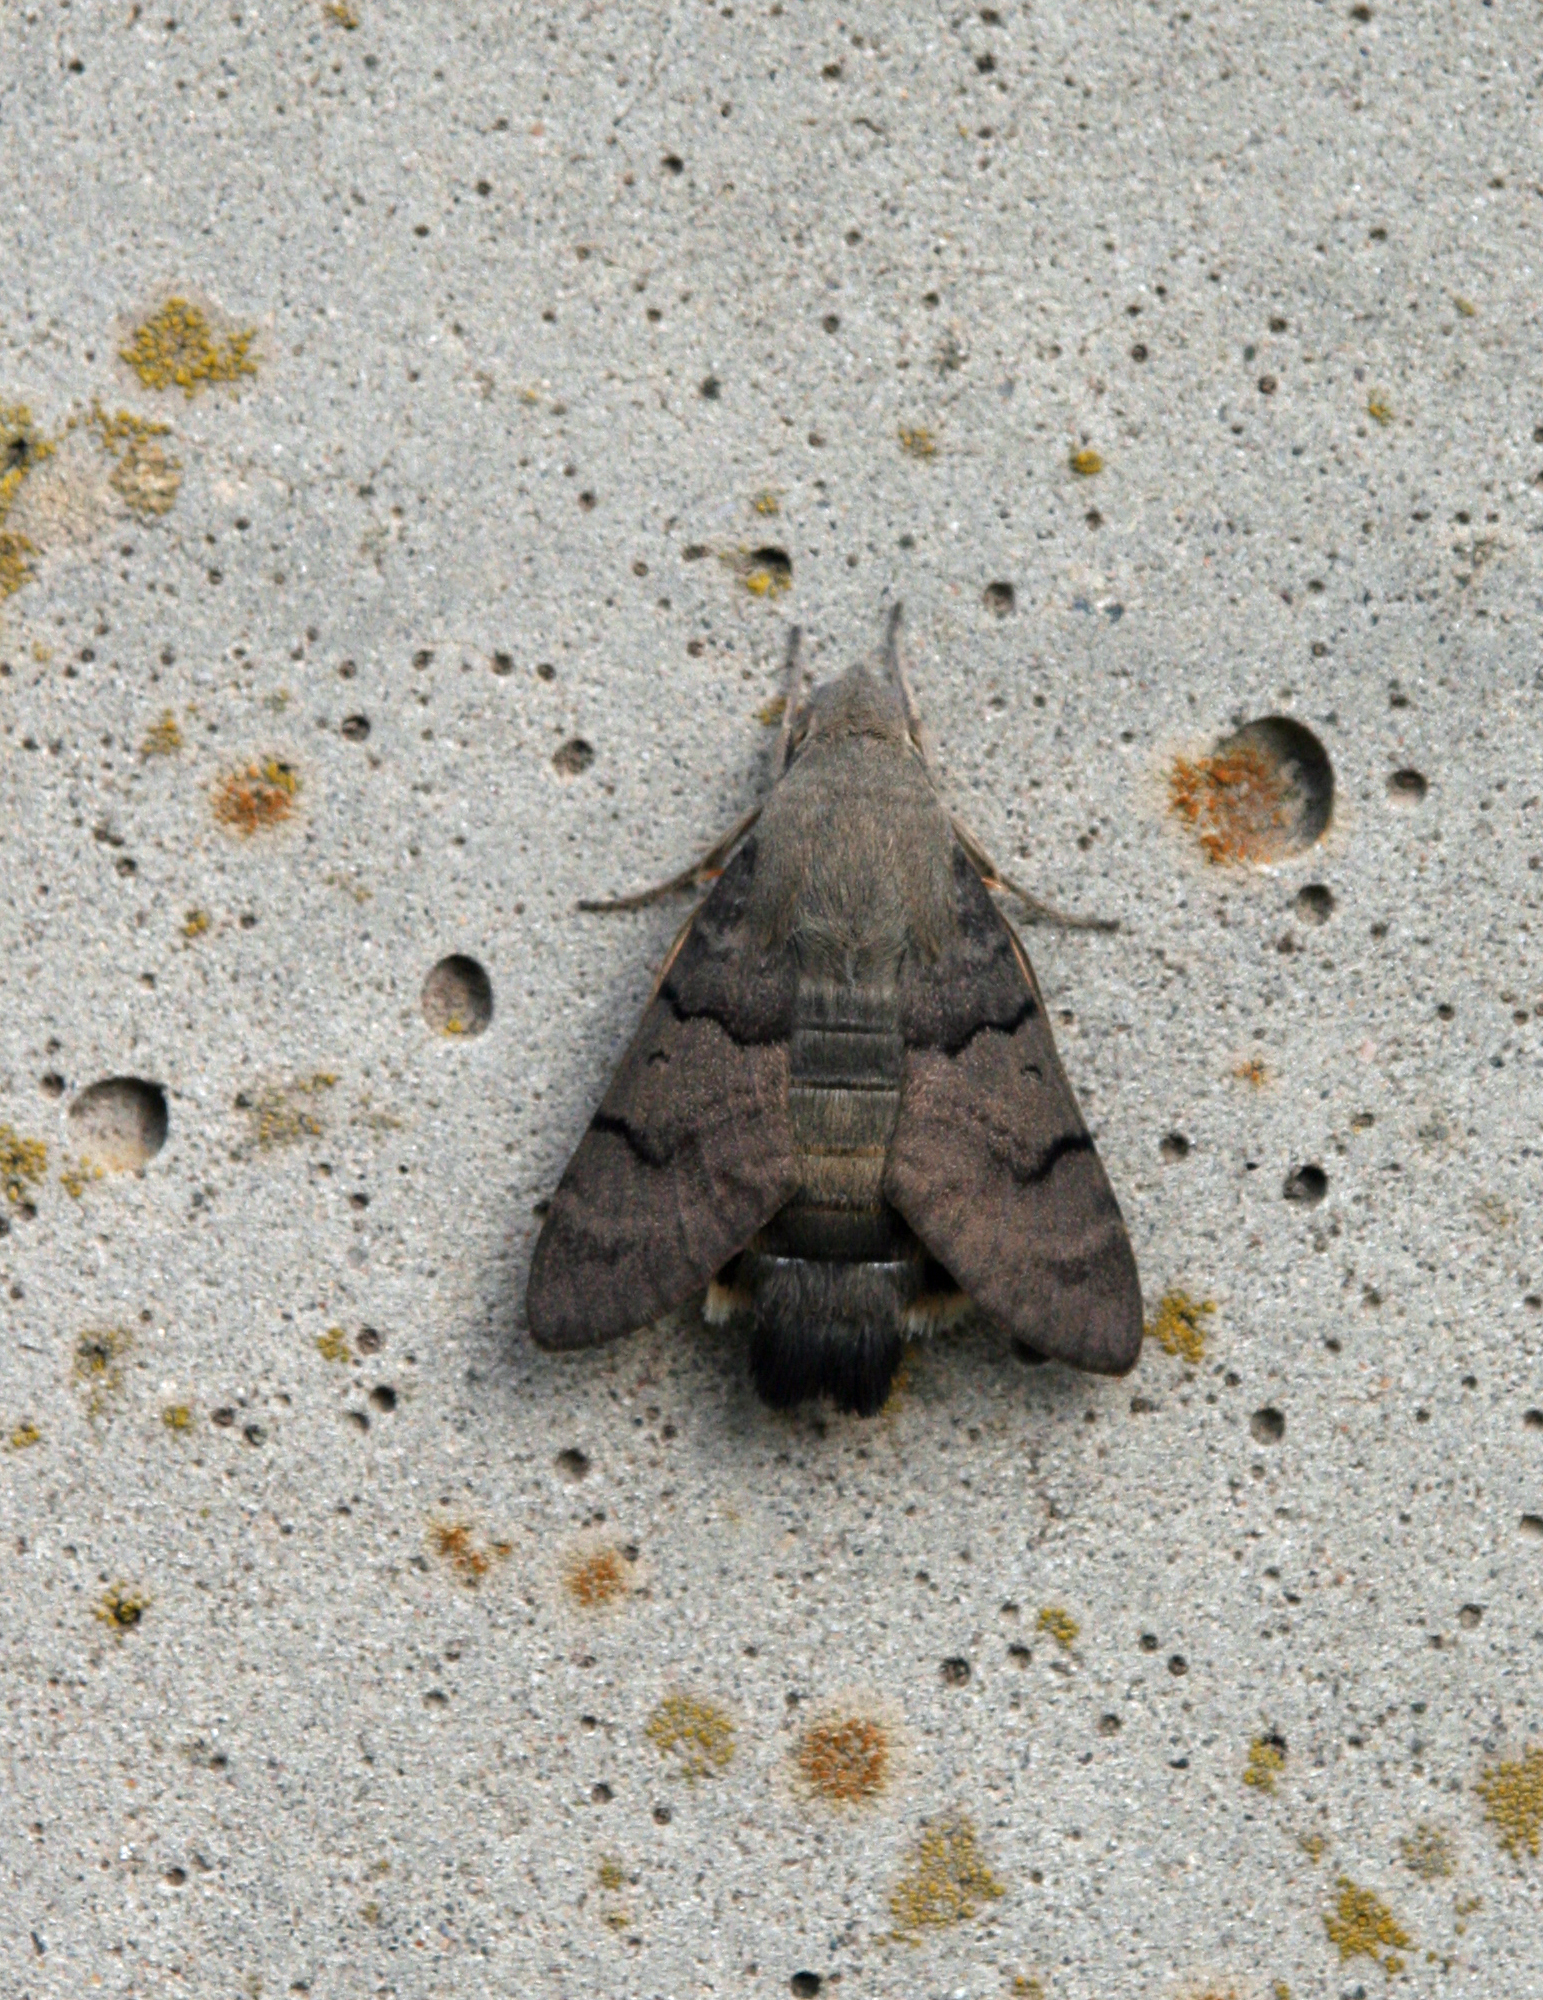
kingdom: Animalia
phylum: Arthropoda
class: Insecta
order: Lepidoptera
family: Sphingidae
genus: Macroglossum
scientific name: Macroglossum stellatarum
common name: Humming-bird hawk-moth
